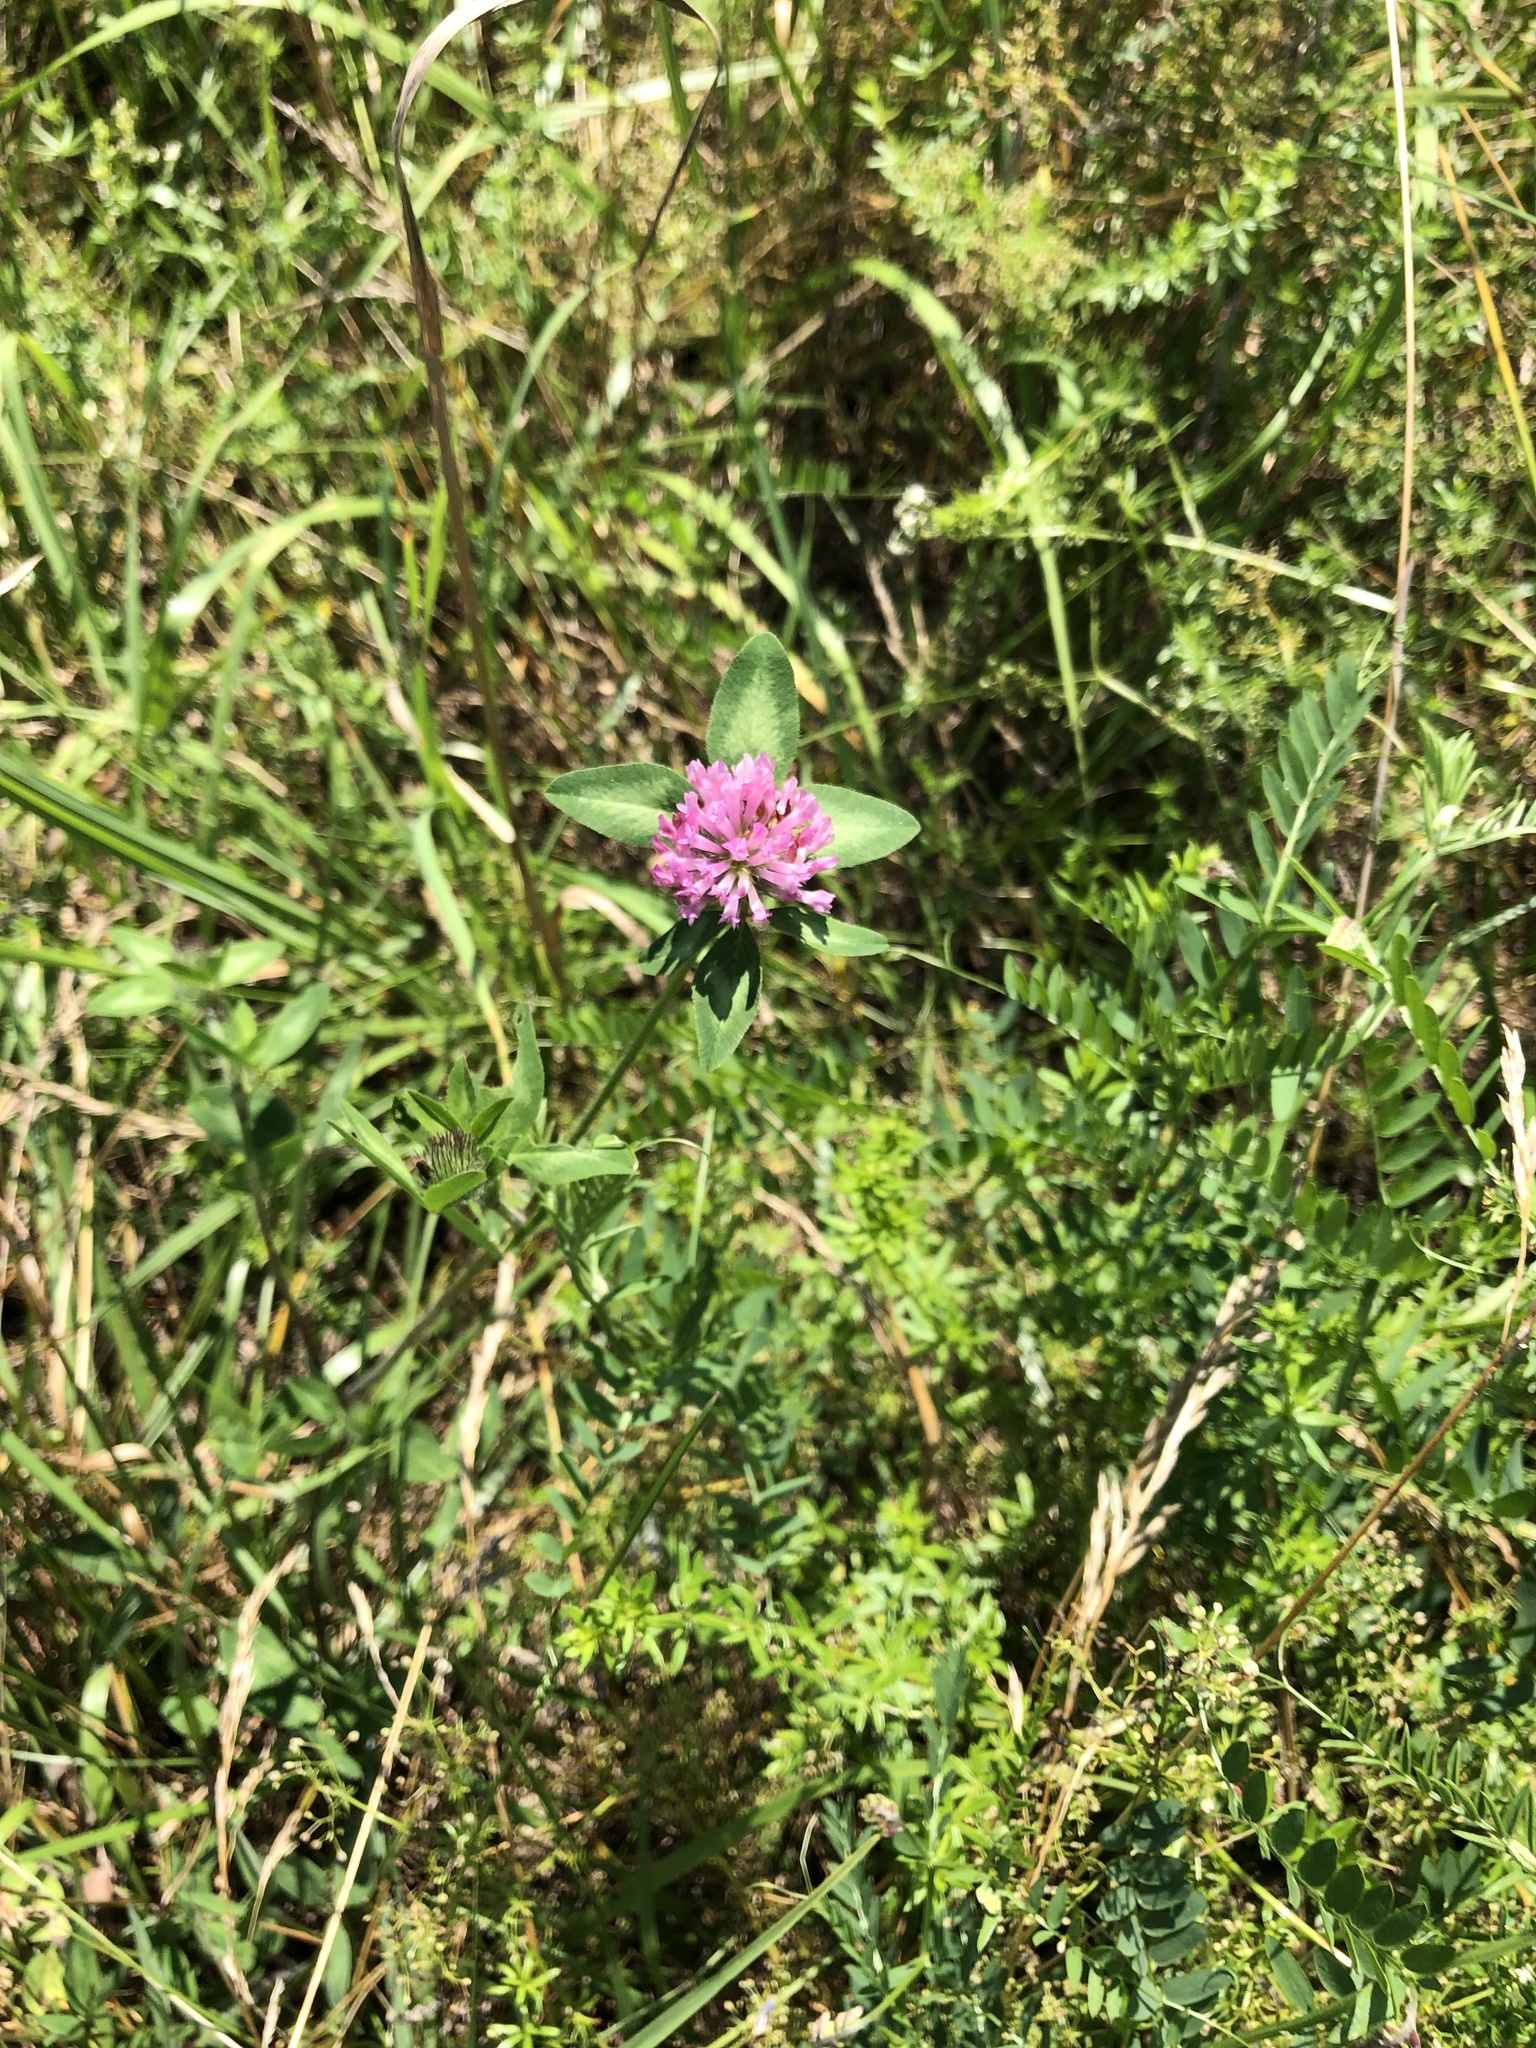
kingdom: Plantae
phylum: Tracheophyta
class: Magnoliopsida
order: Fabales
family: Fabaceae
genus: Trifolium
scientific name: Trifolium pratense
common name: Red clover
